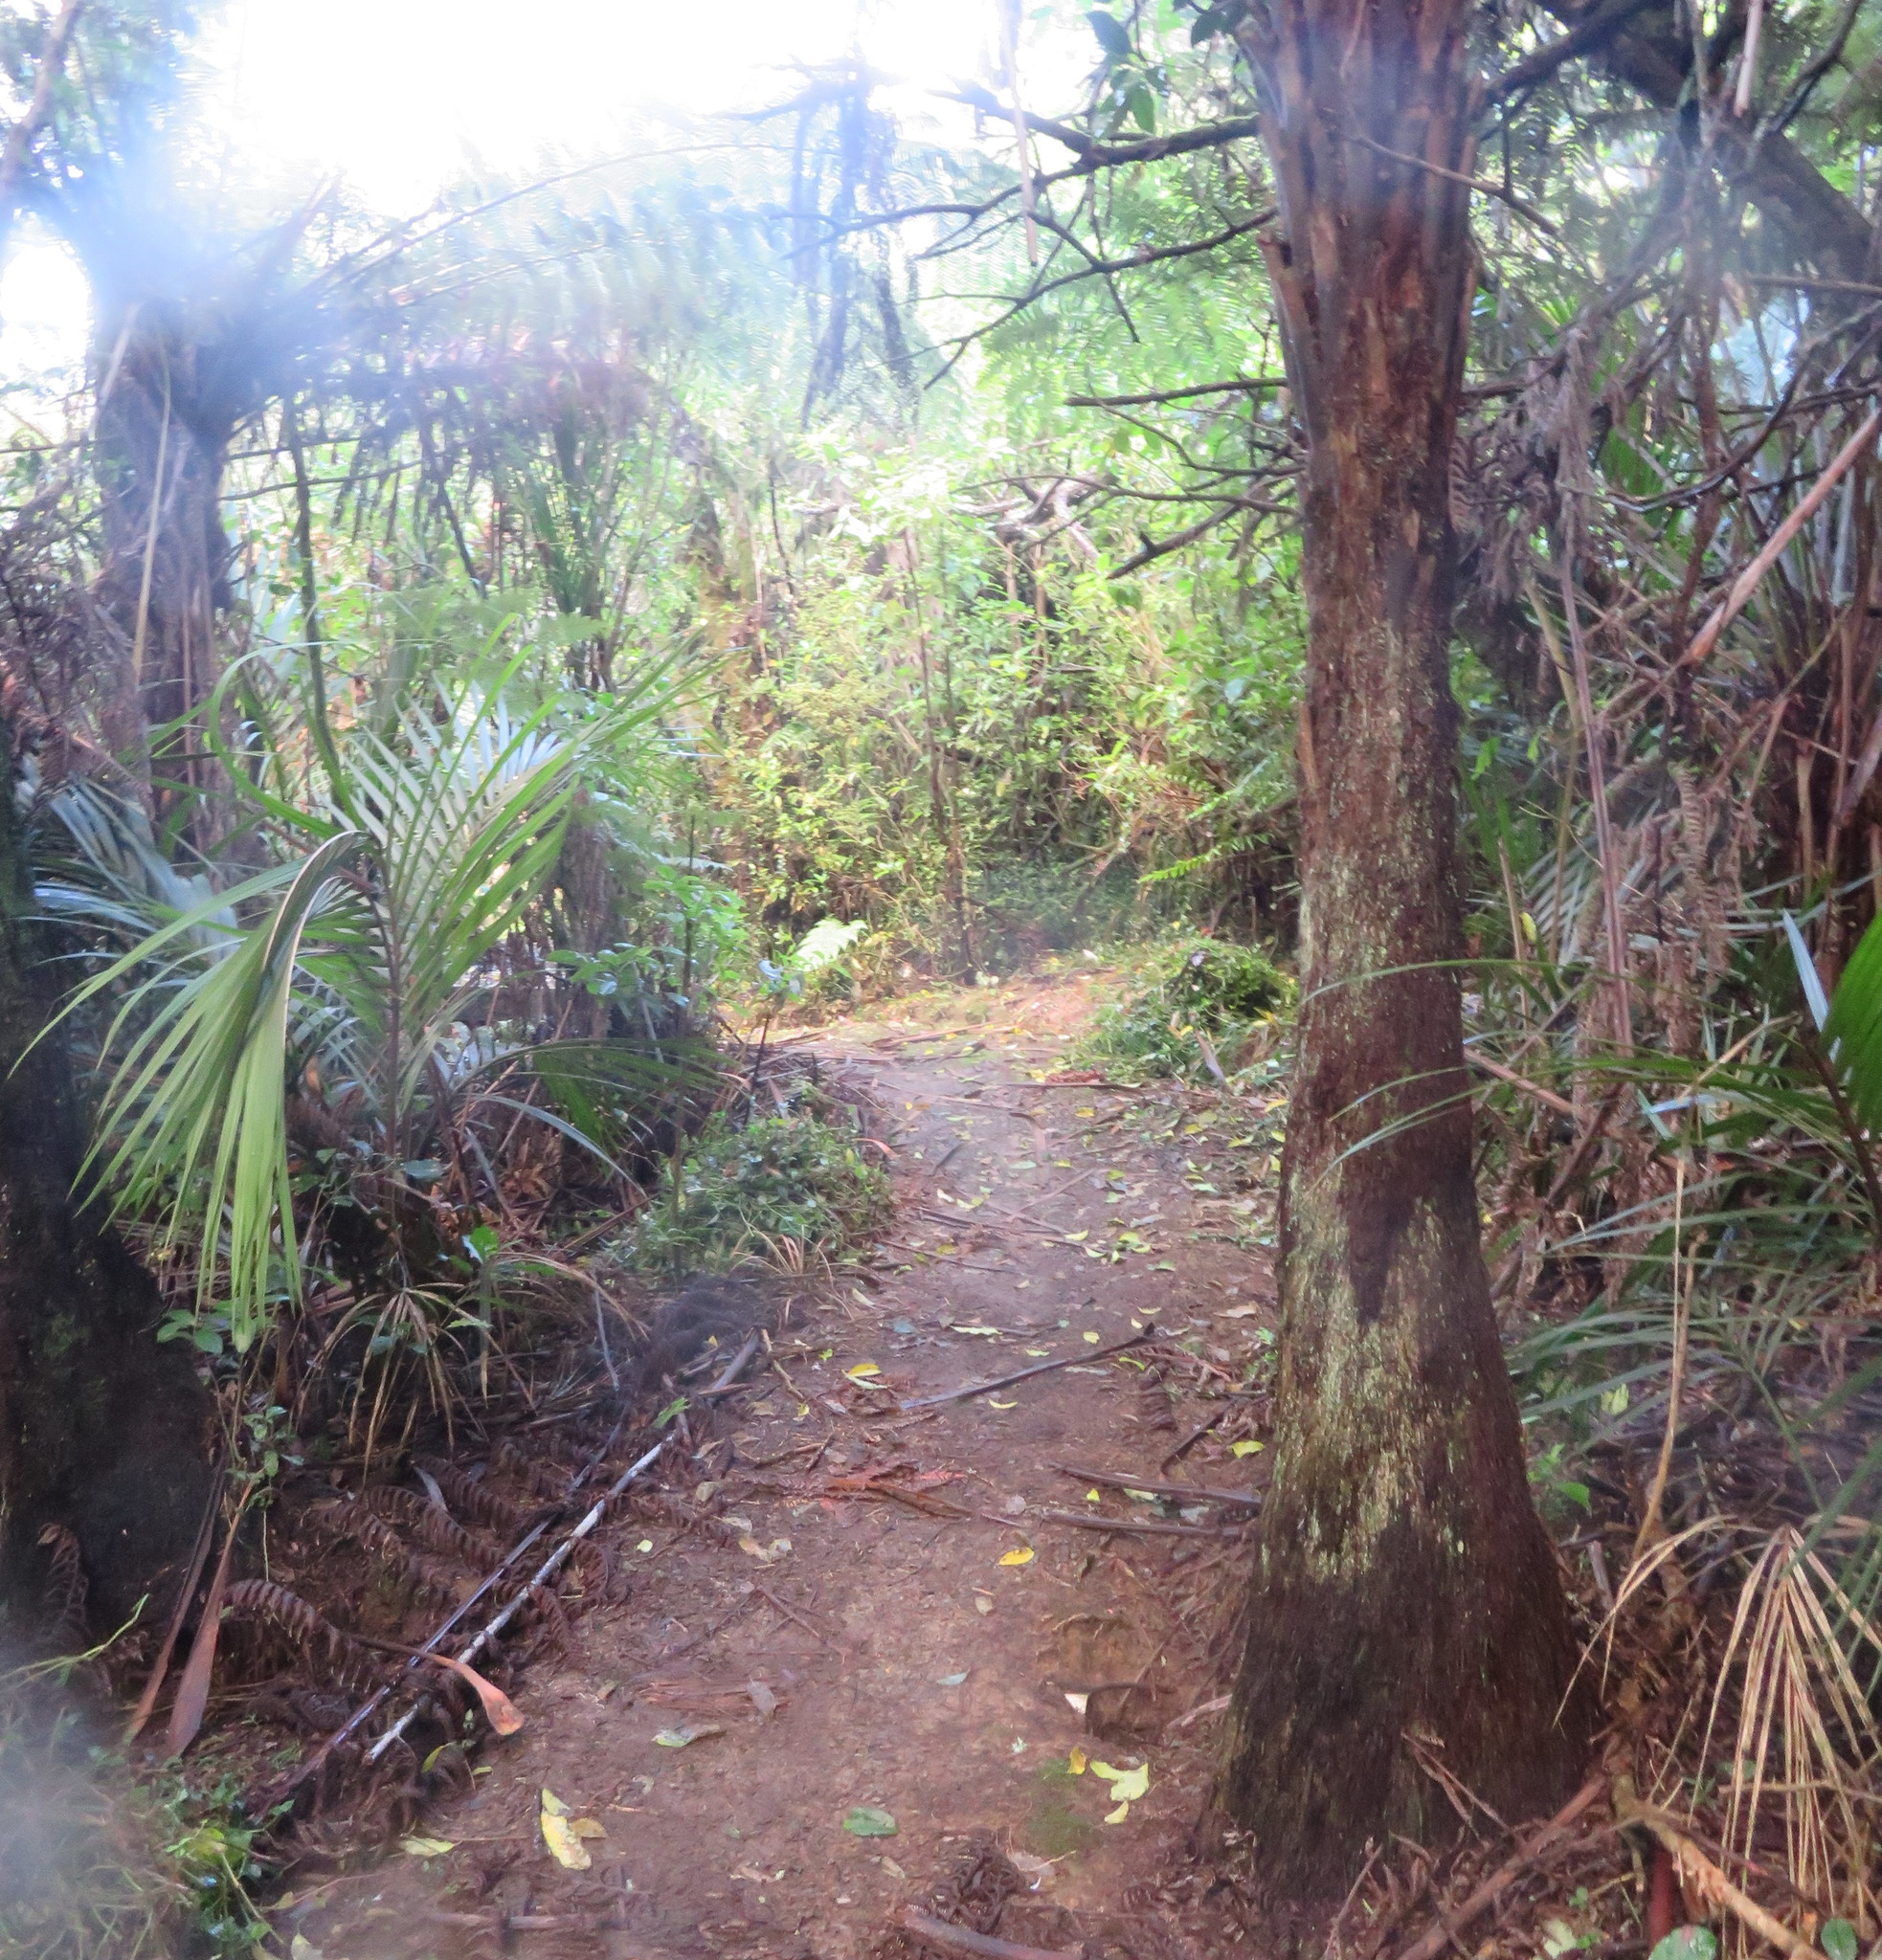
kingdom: Plantae
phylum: Tracheophyta
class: Liliopsida
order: Arecales
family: Arecaceae
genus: Rhopalostylis
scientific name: Rhopalostylis sapida
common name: Feather-duster palm
